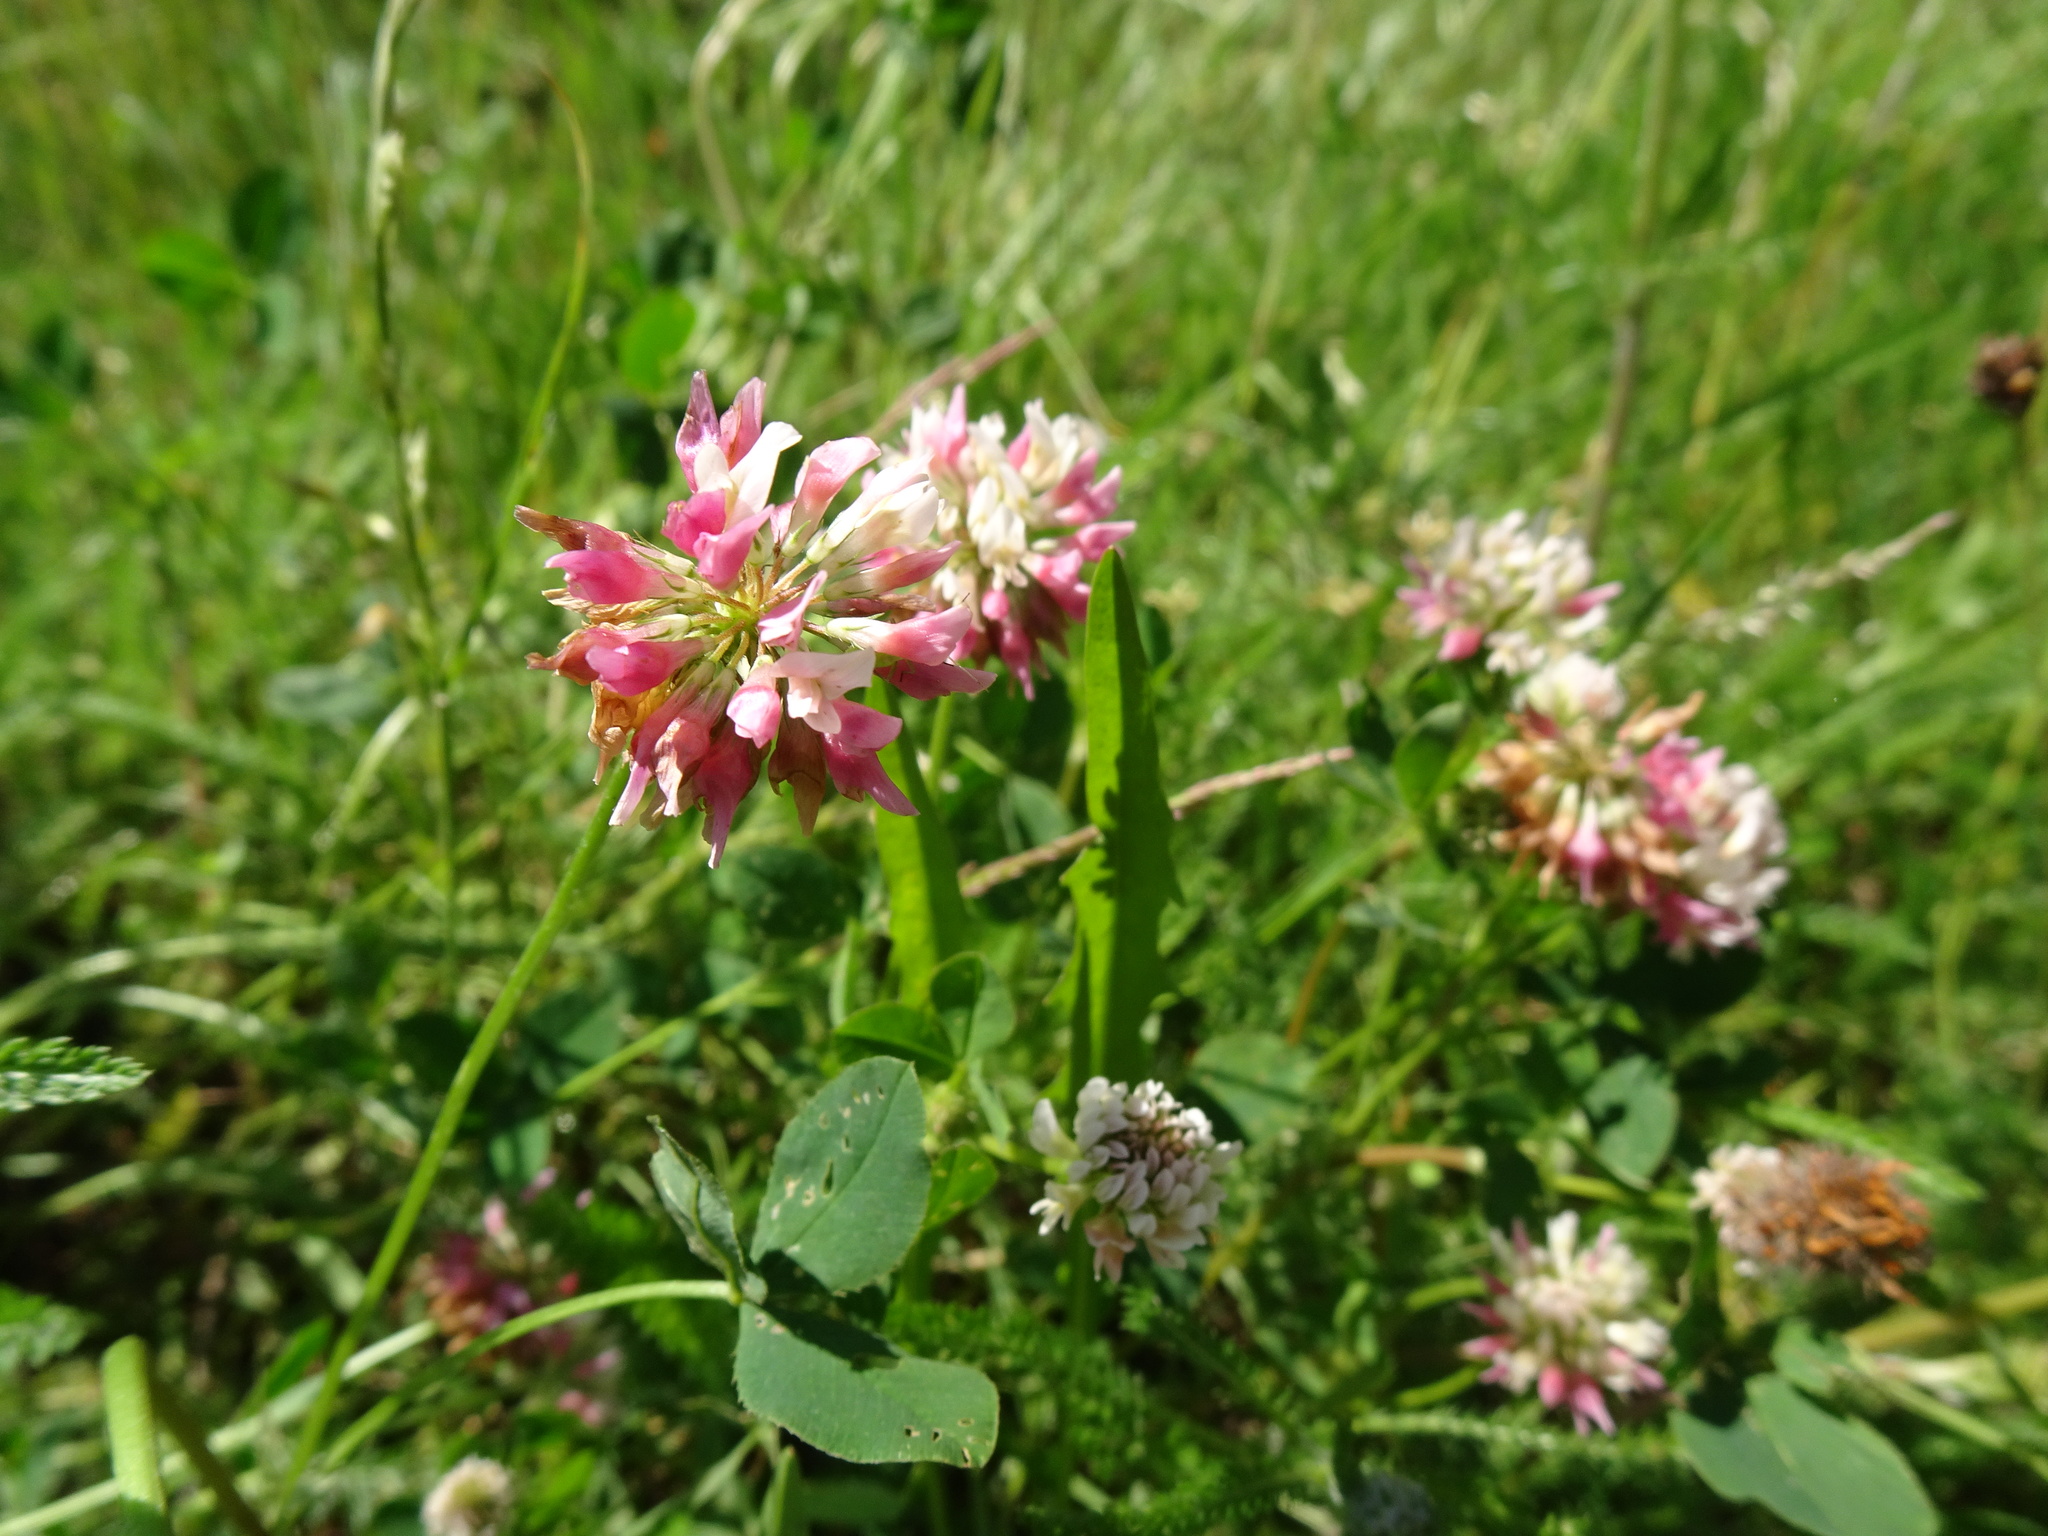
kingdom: Plantae
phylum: Tracheophyta
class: Magnoliopsida
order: Fabales
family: Fabaceae
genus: Trifolium
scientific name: Trifolium hybridum
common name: Alsike clover
